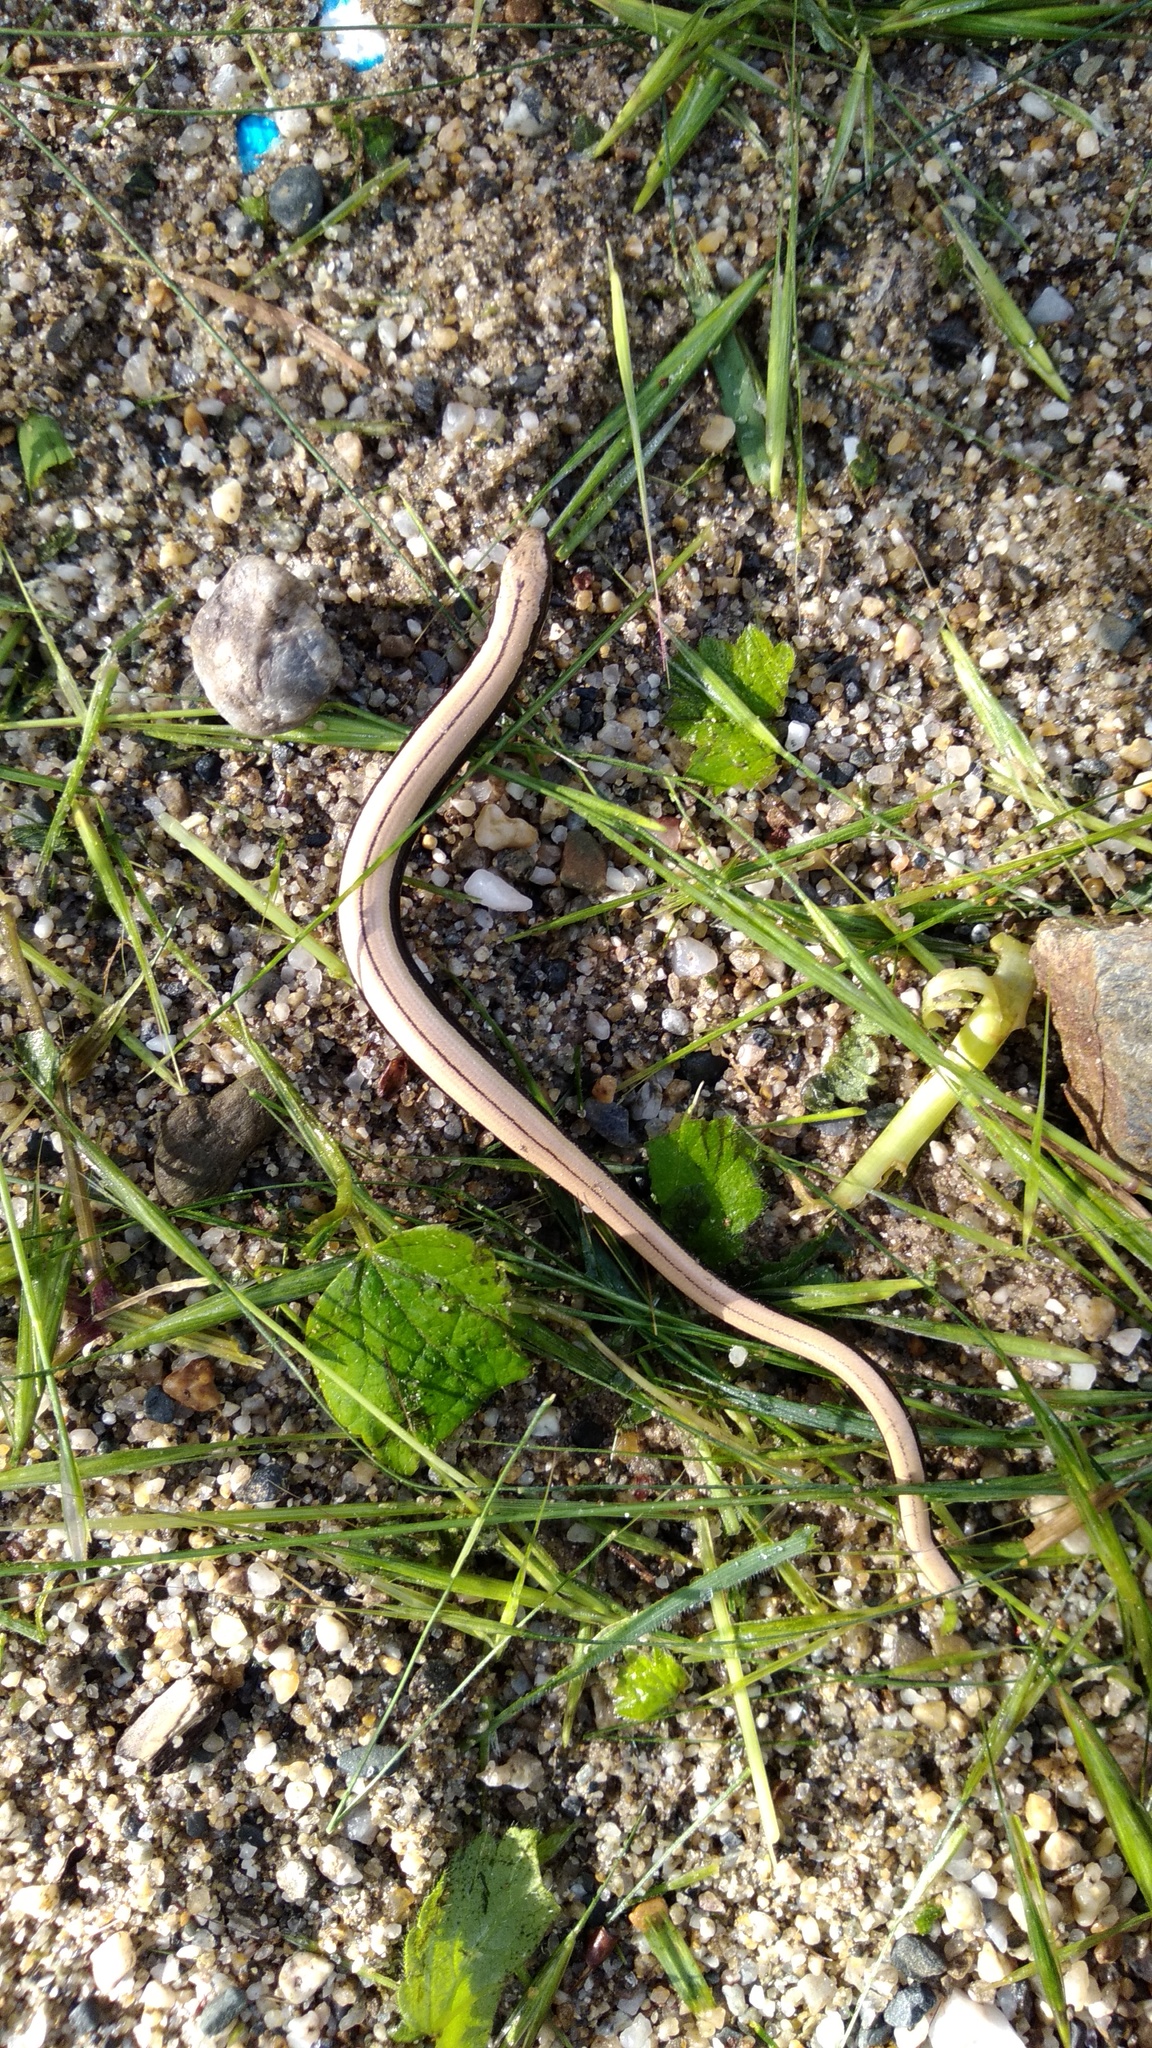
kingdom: Animalia
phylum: Chordata
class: Squamata
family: Anguidae
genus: Anguis
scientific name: Anguis fragilis
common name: Slow worm
